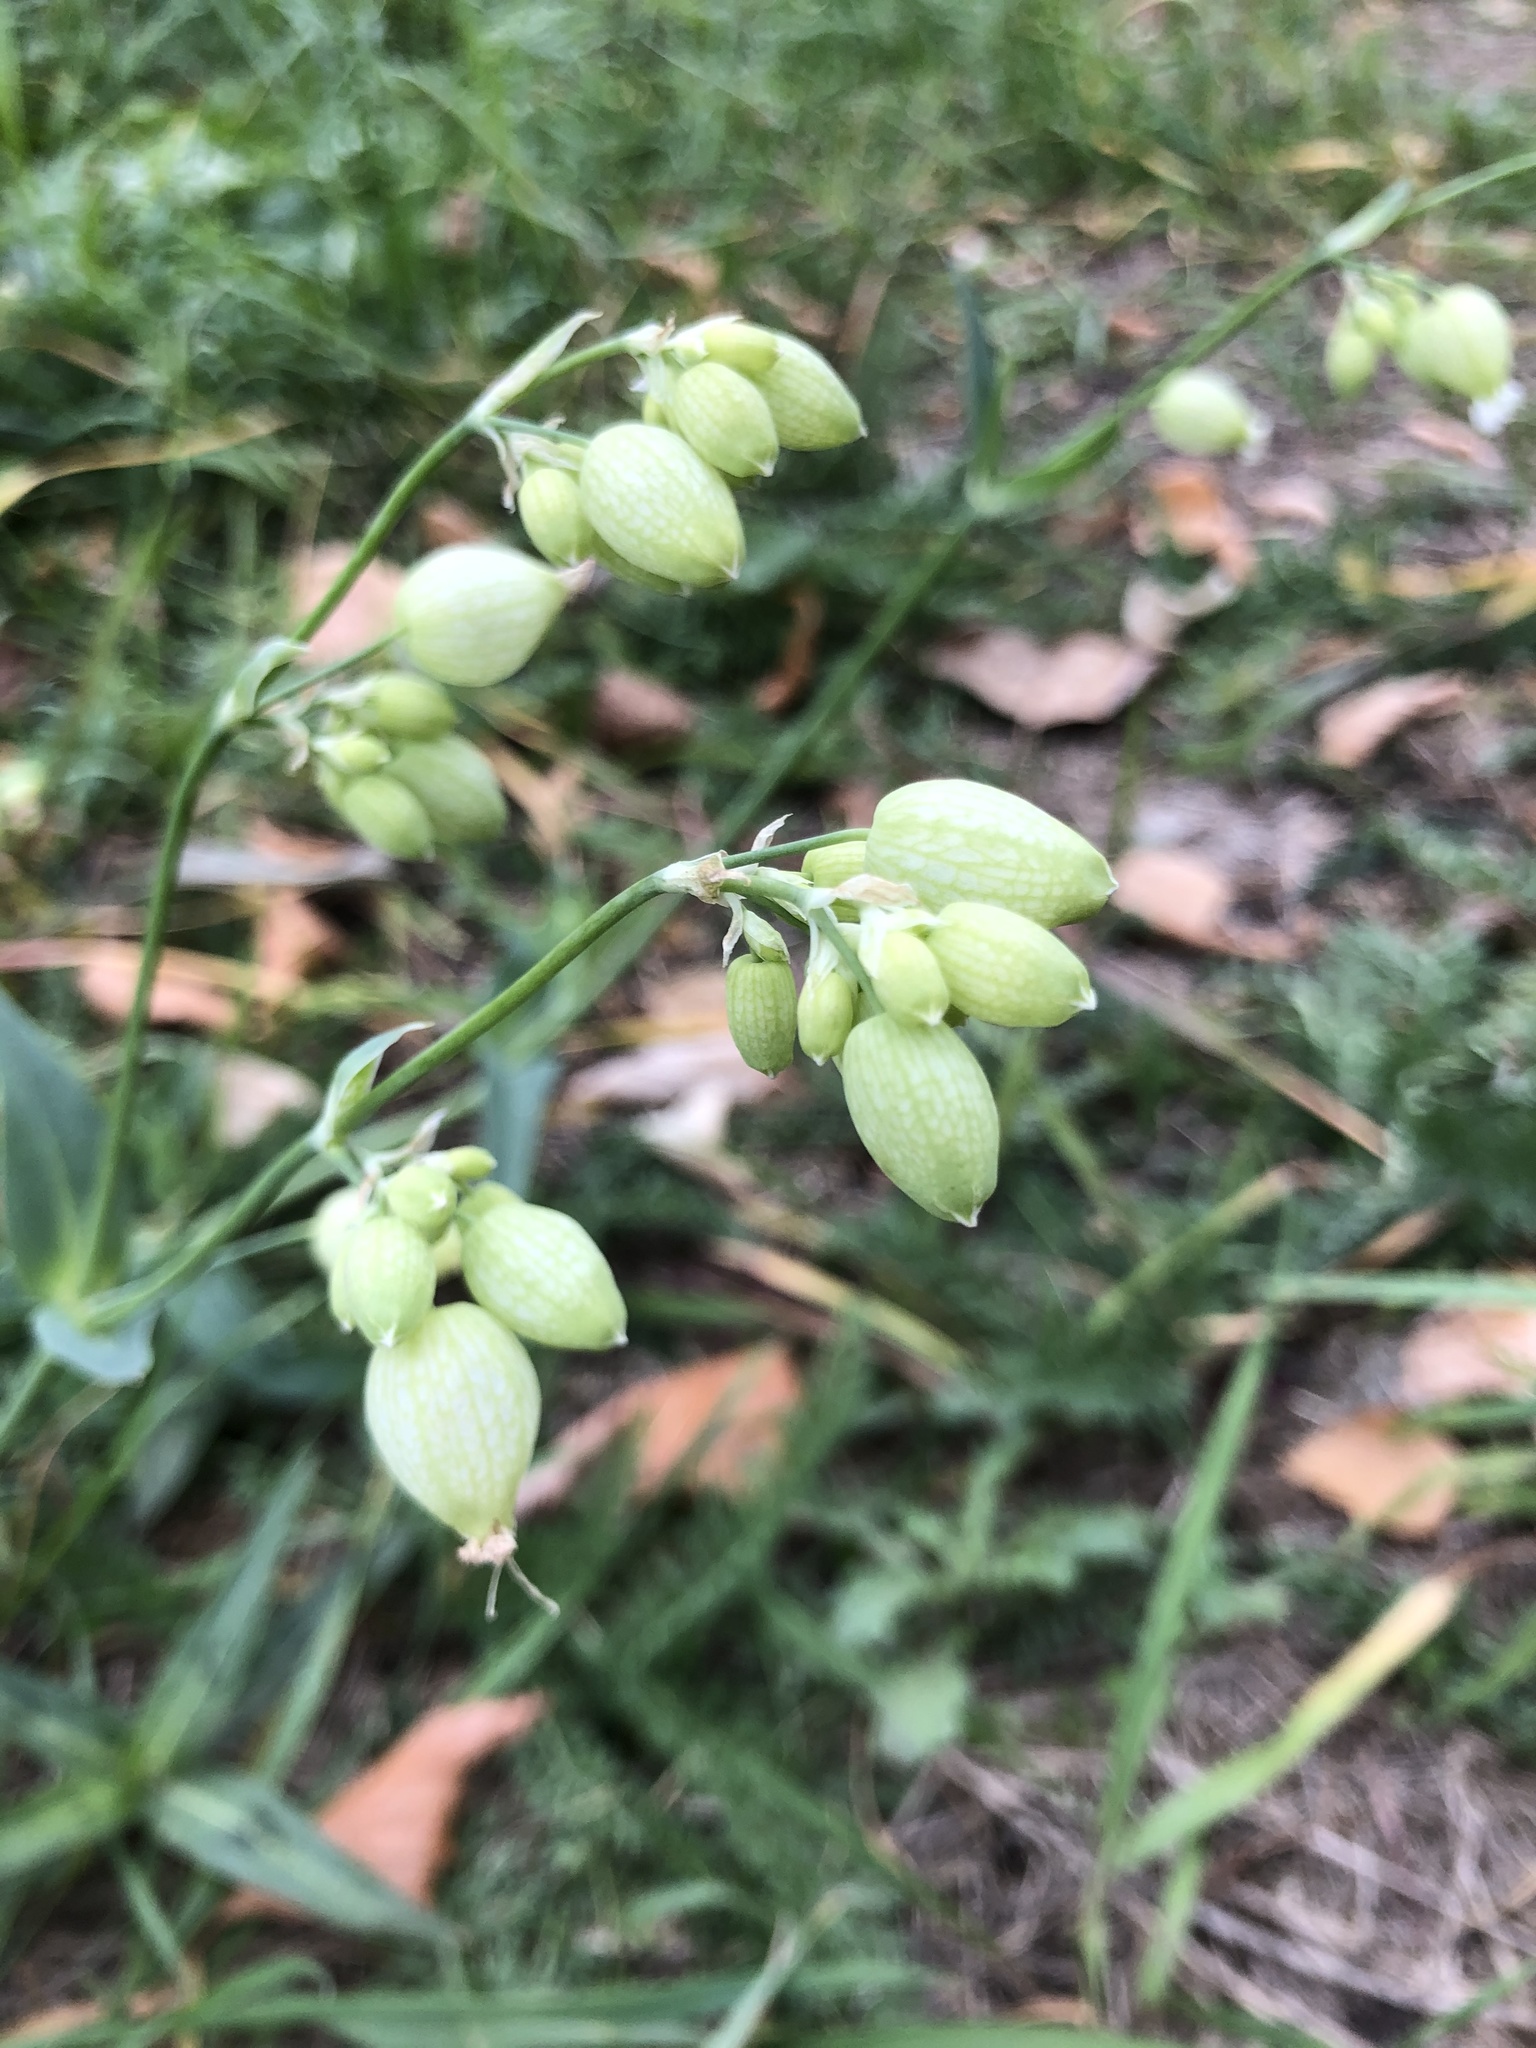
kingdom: Plantae
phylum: Tracheophyta
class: Magnoliopsida
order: Caryophyllales
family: Caryophyllaceae
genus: Silene
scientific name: Silene vulgaris
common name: Bladder campion
